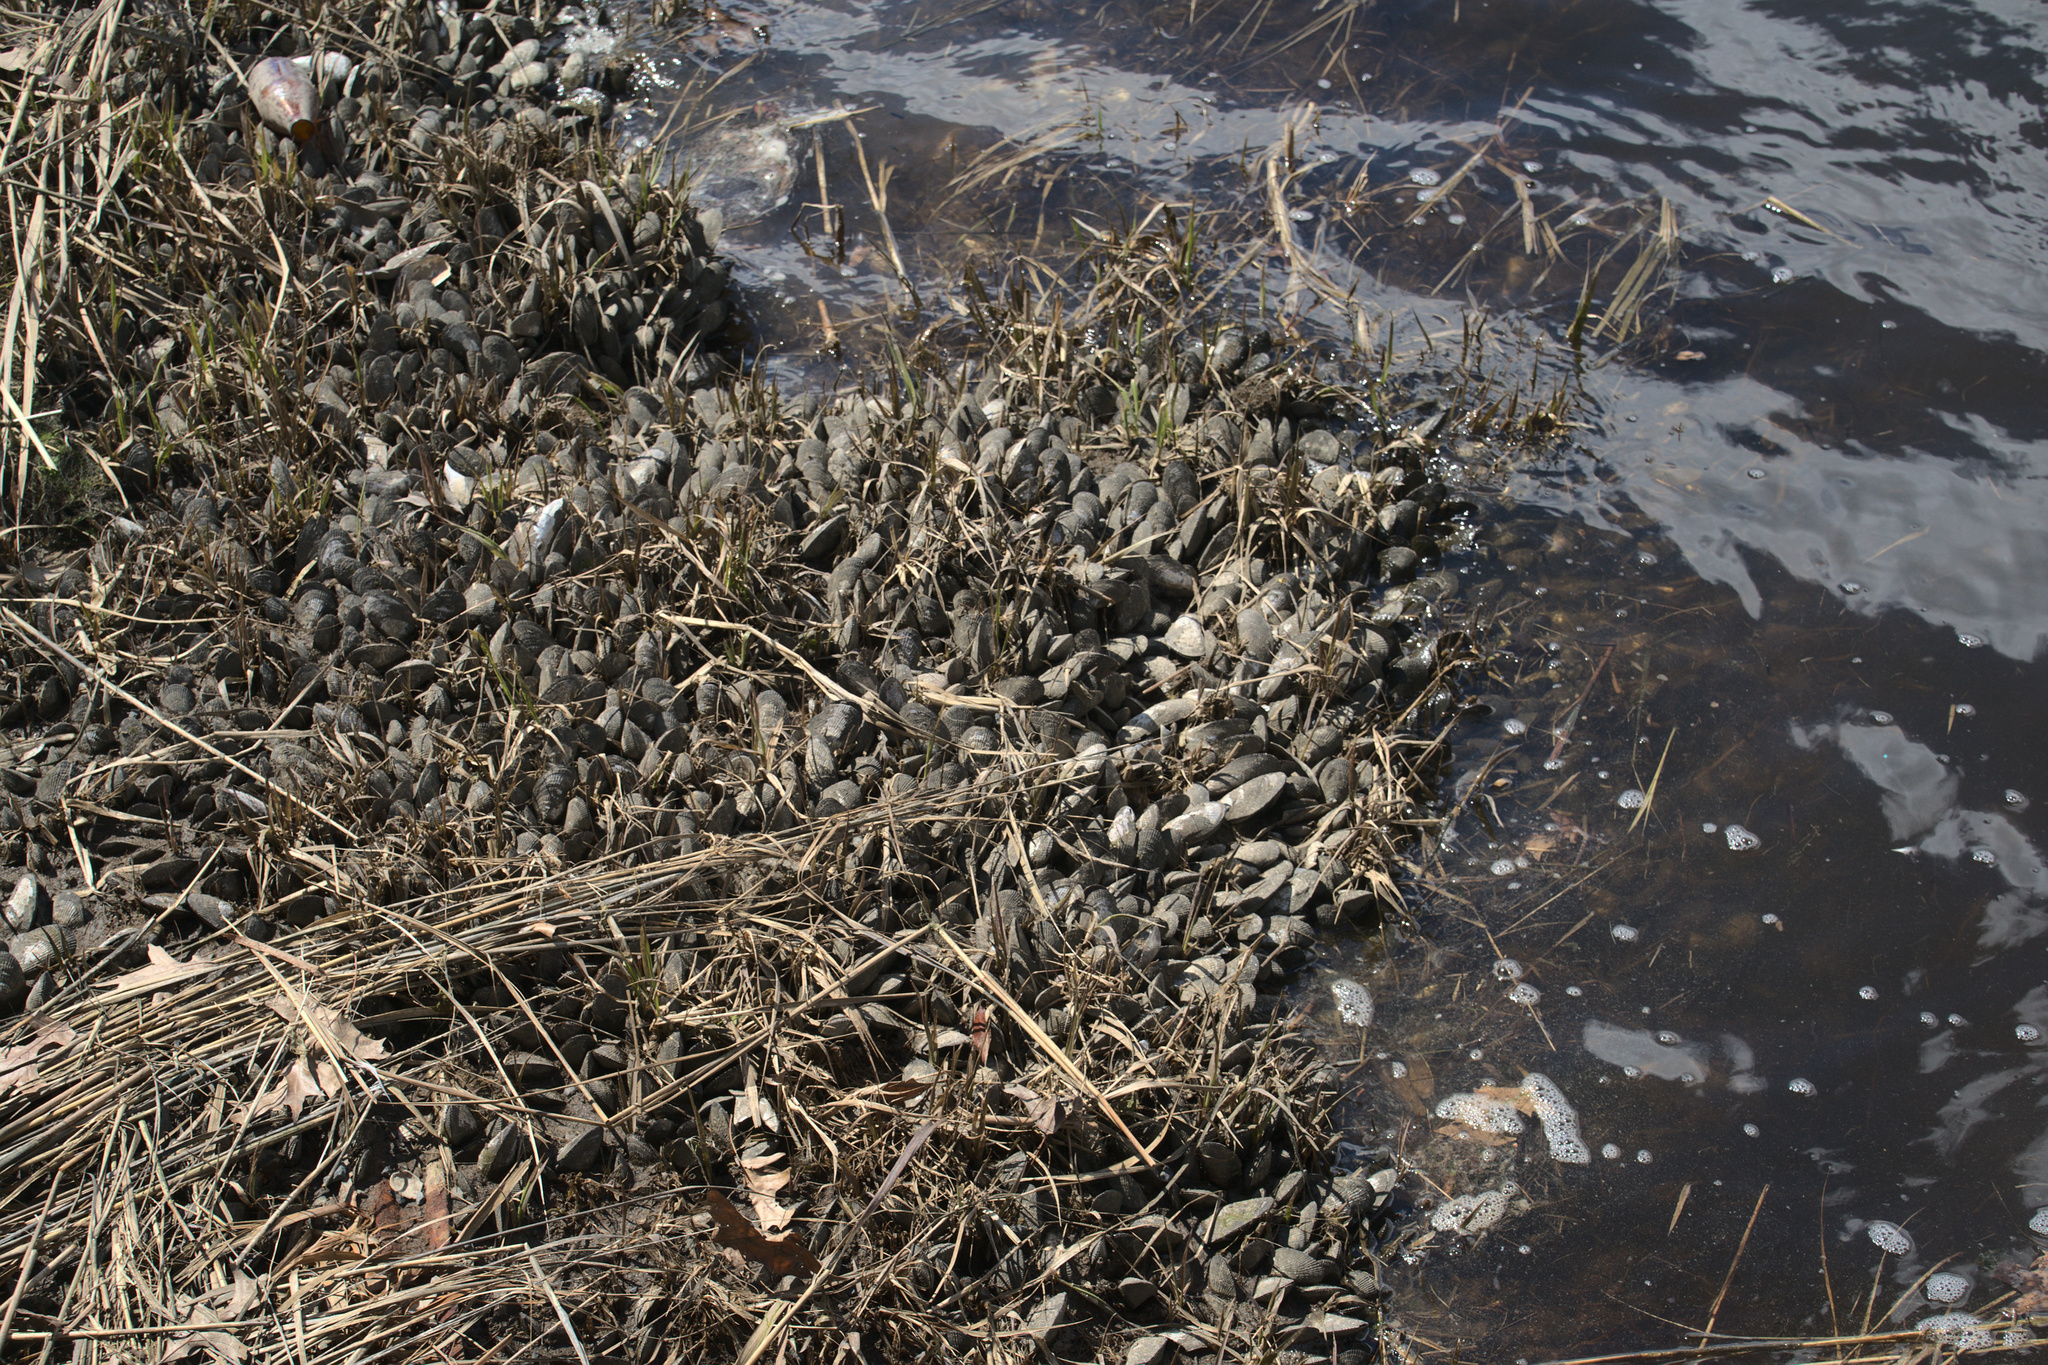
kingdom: Animalia
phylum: Mollusca
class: Bivalvia
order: Mytilida
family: Mytilidae
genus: Geukensia
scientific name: Geukensia demissa
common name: Ribbed mussel
